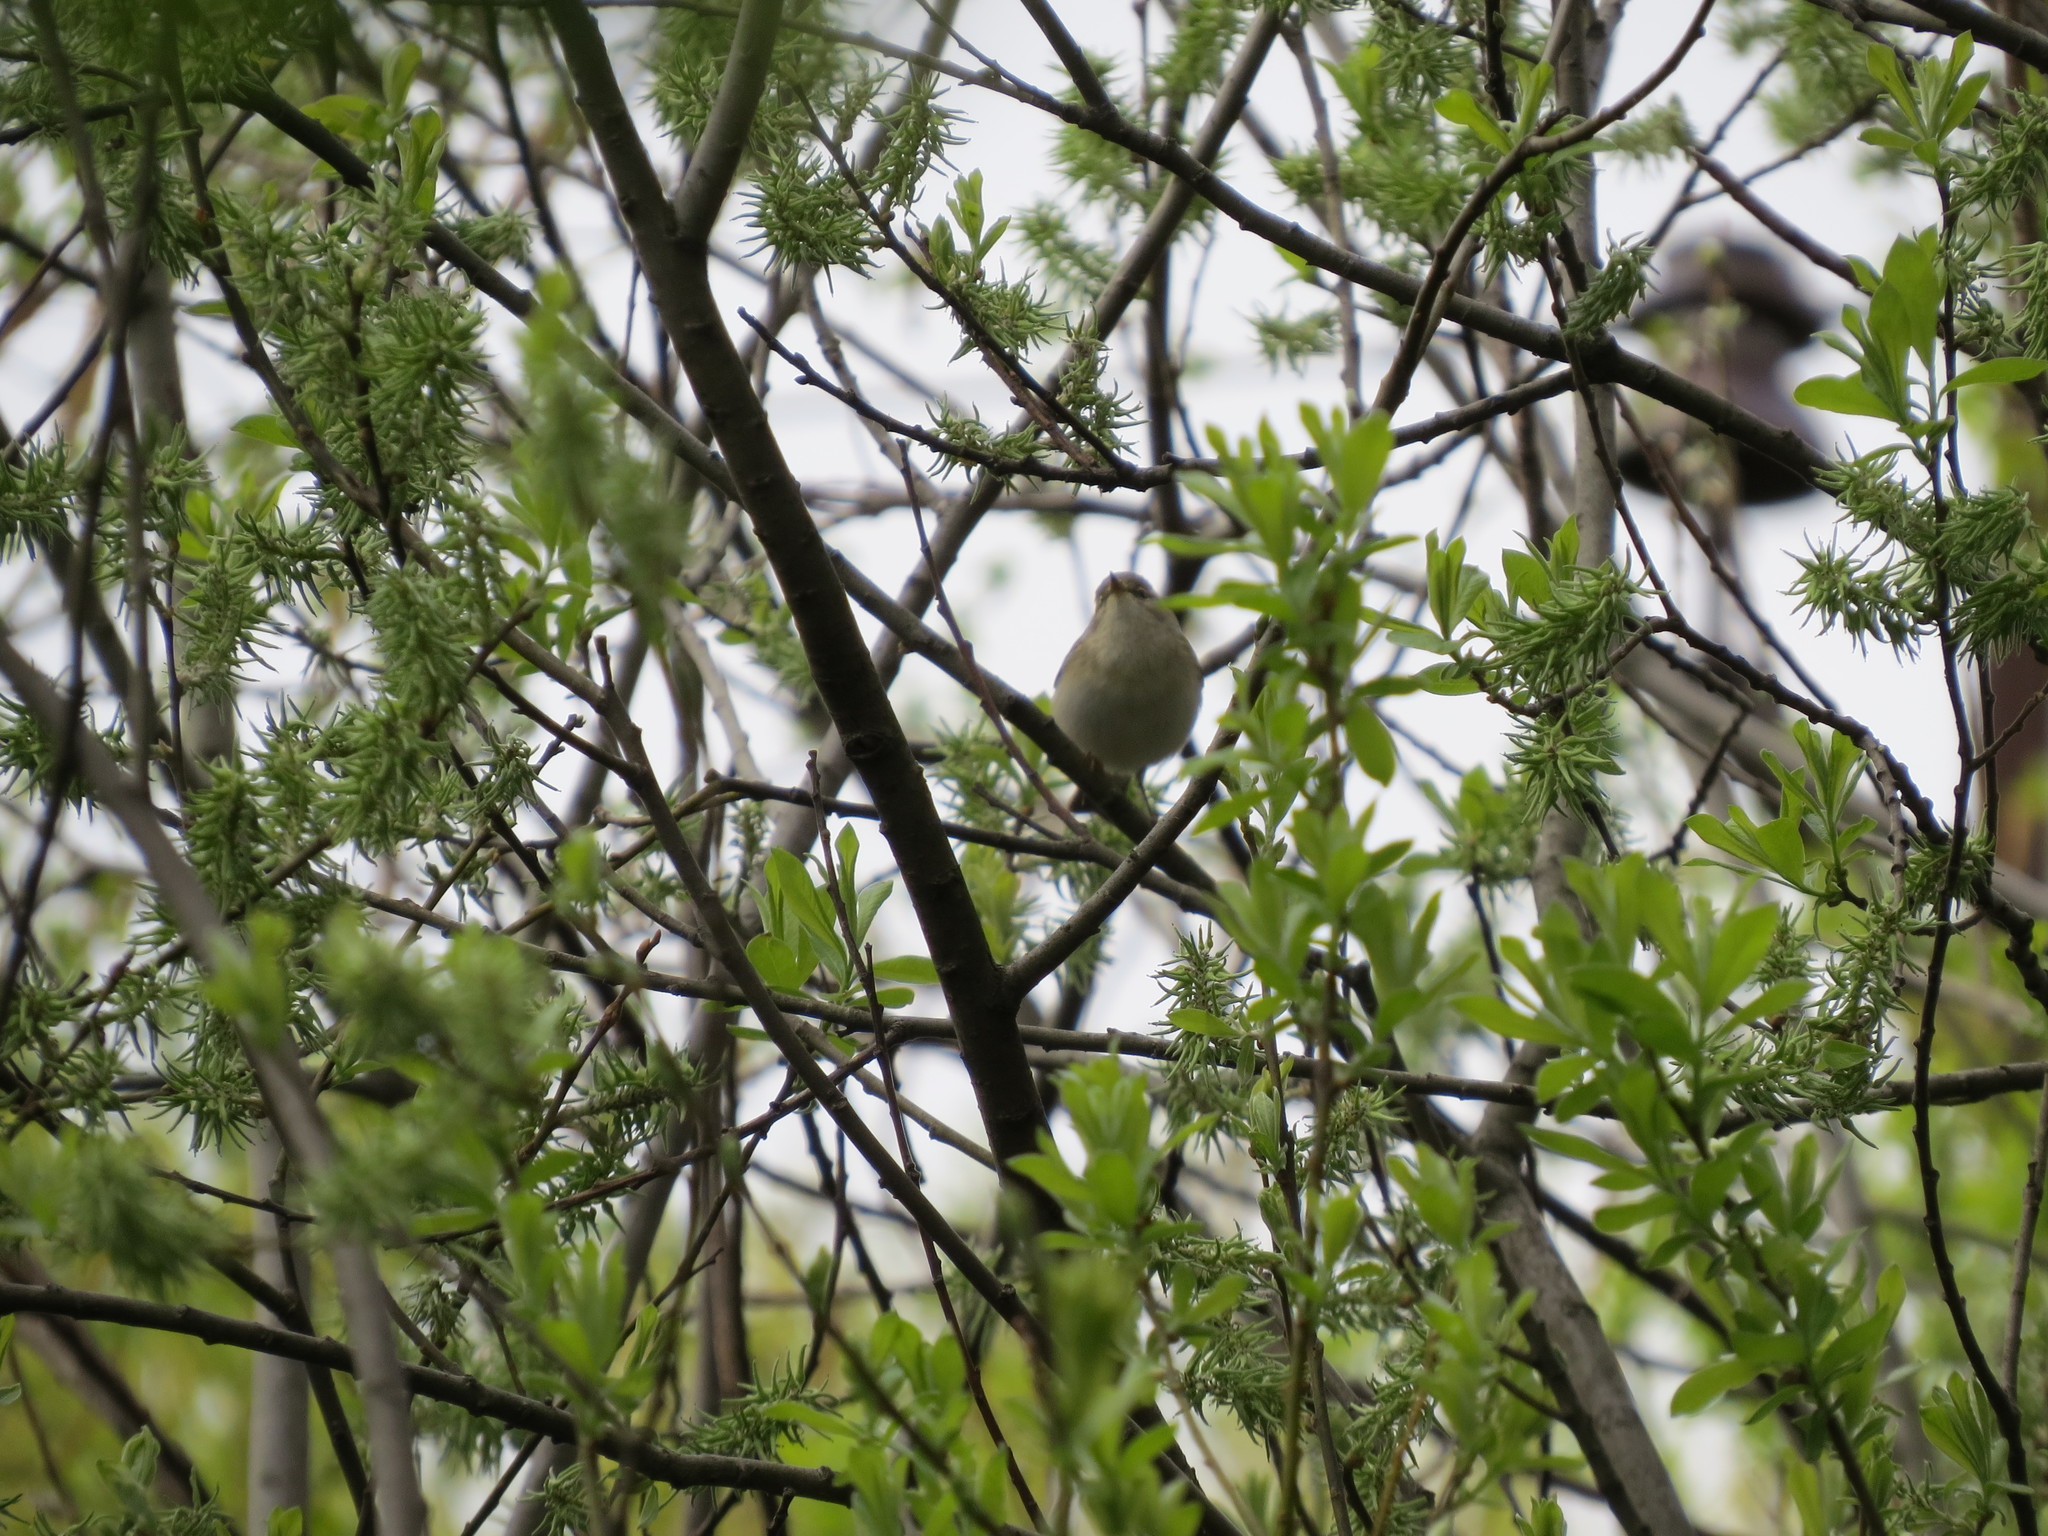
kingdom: Animalia
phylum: Chordata
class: Aves
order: Passeriformes
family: Phylloscopidae
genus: Phylloscopus
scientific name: Phylloscopus trochilus
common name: Willow warbler
